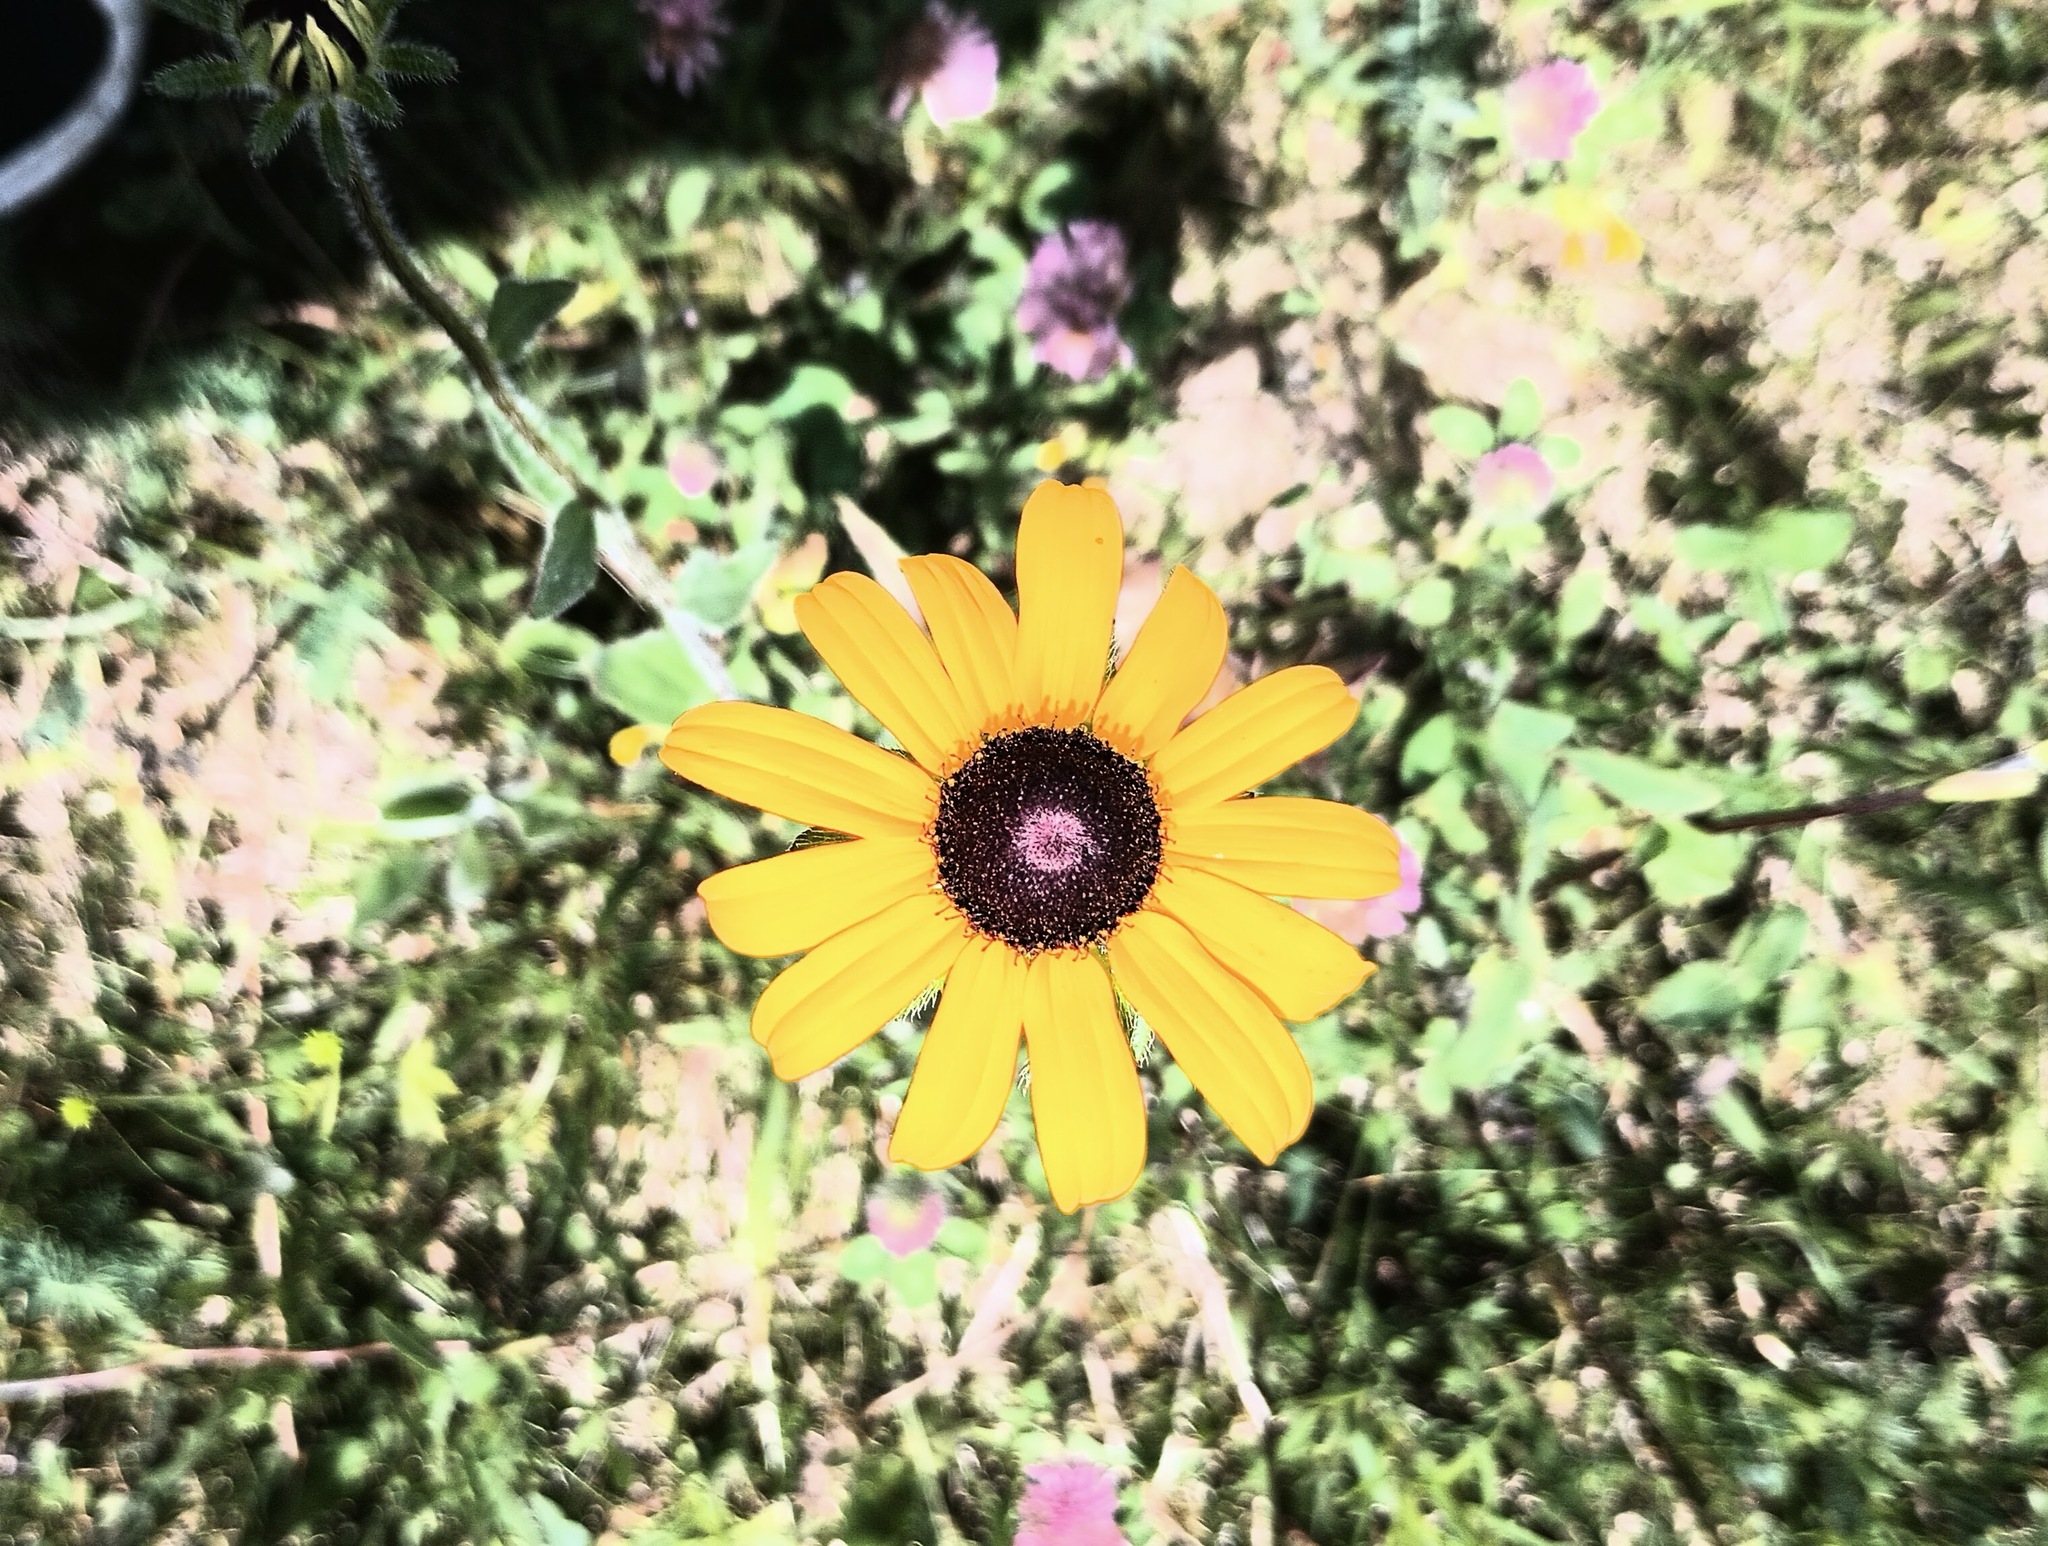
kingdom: Plantae
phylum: Tracheophyta
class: Magnoliopsida
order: Asterales
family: Asteraceae
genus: Rudbeckia
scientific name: Rudbeckia hirta
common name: Black-eyed-susan
